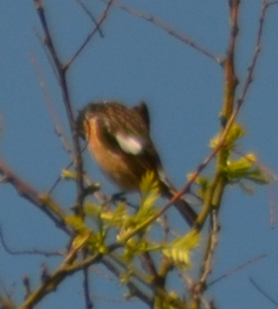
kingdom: Animalia
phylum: Chordata
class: Aves
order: Passeriformes
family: Muscicapidae
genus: Saxicola
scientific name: Saxicola rubicola
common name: European stonechat
